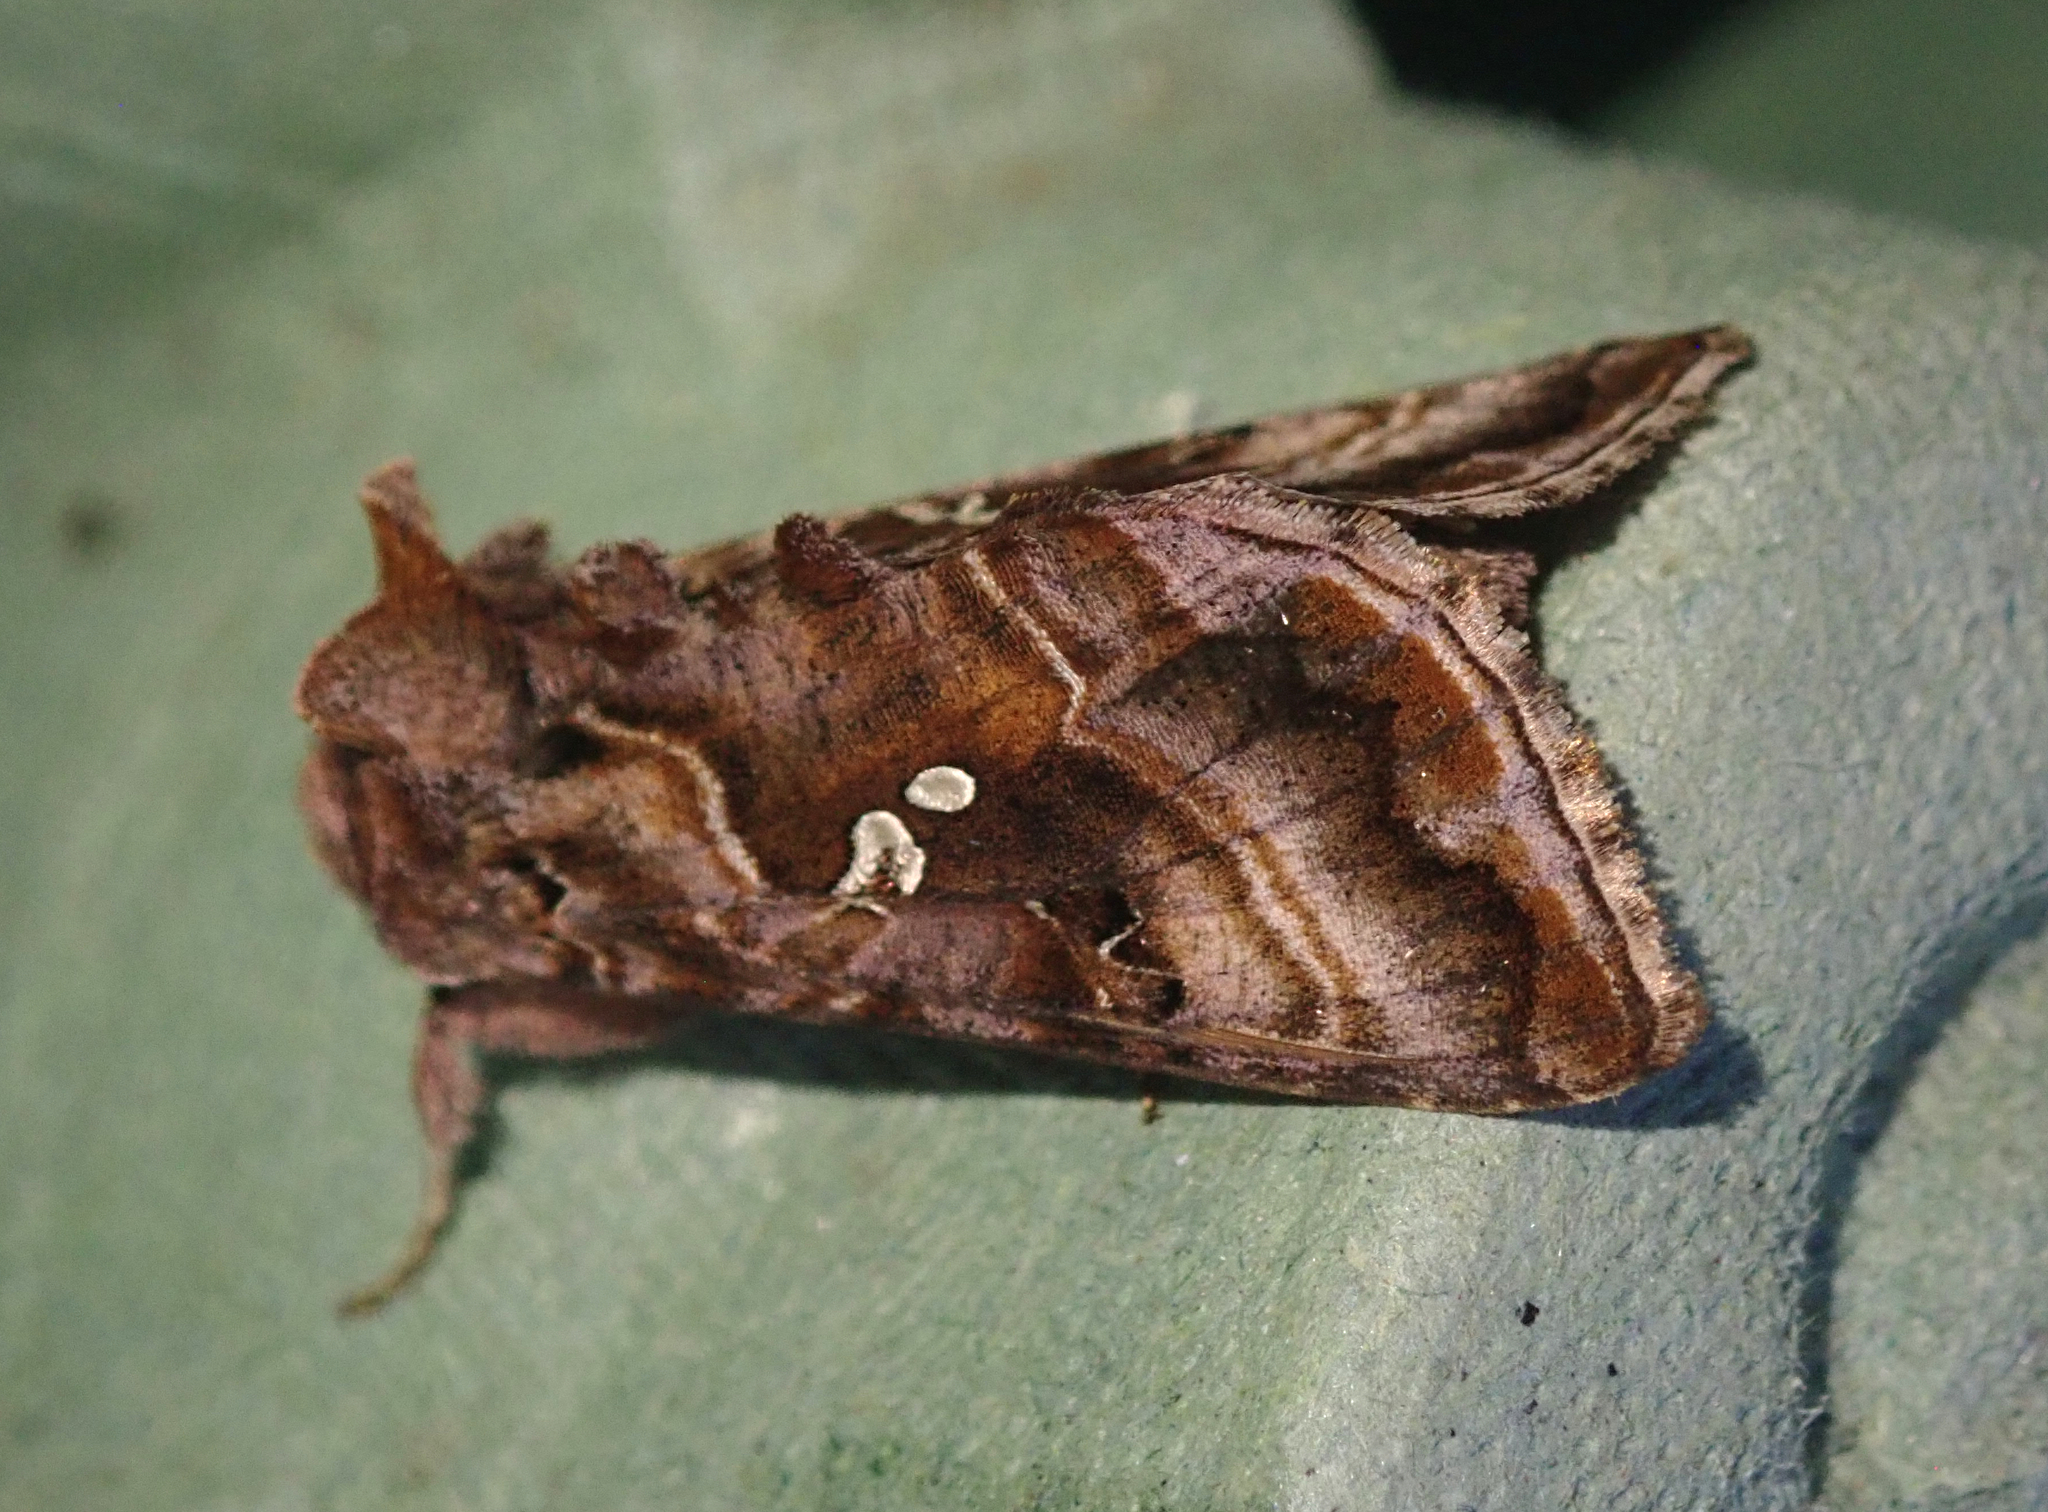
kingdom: Animalia
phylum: Arthropoda
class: Insecta
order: Lepidoptera
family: Noctuidae
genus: Autographa
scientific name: Autographa pulchrina
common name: Beautiful golden y
